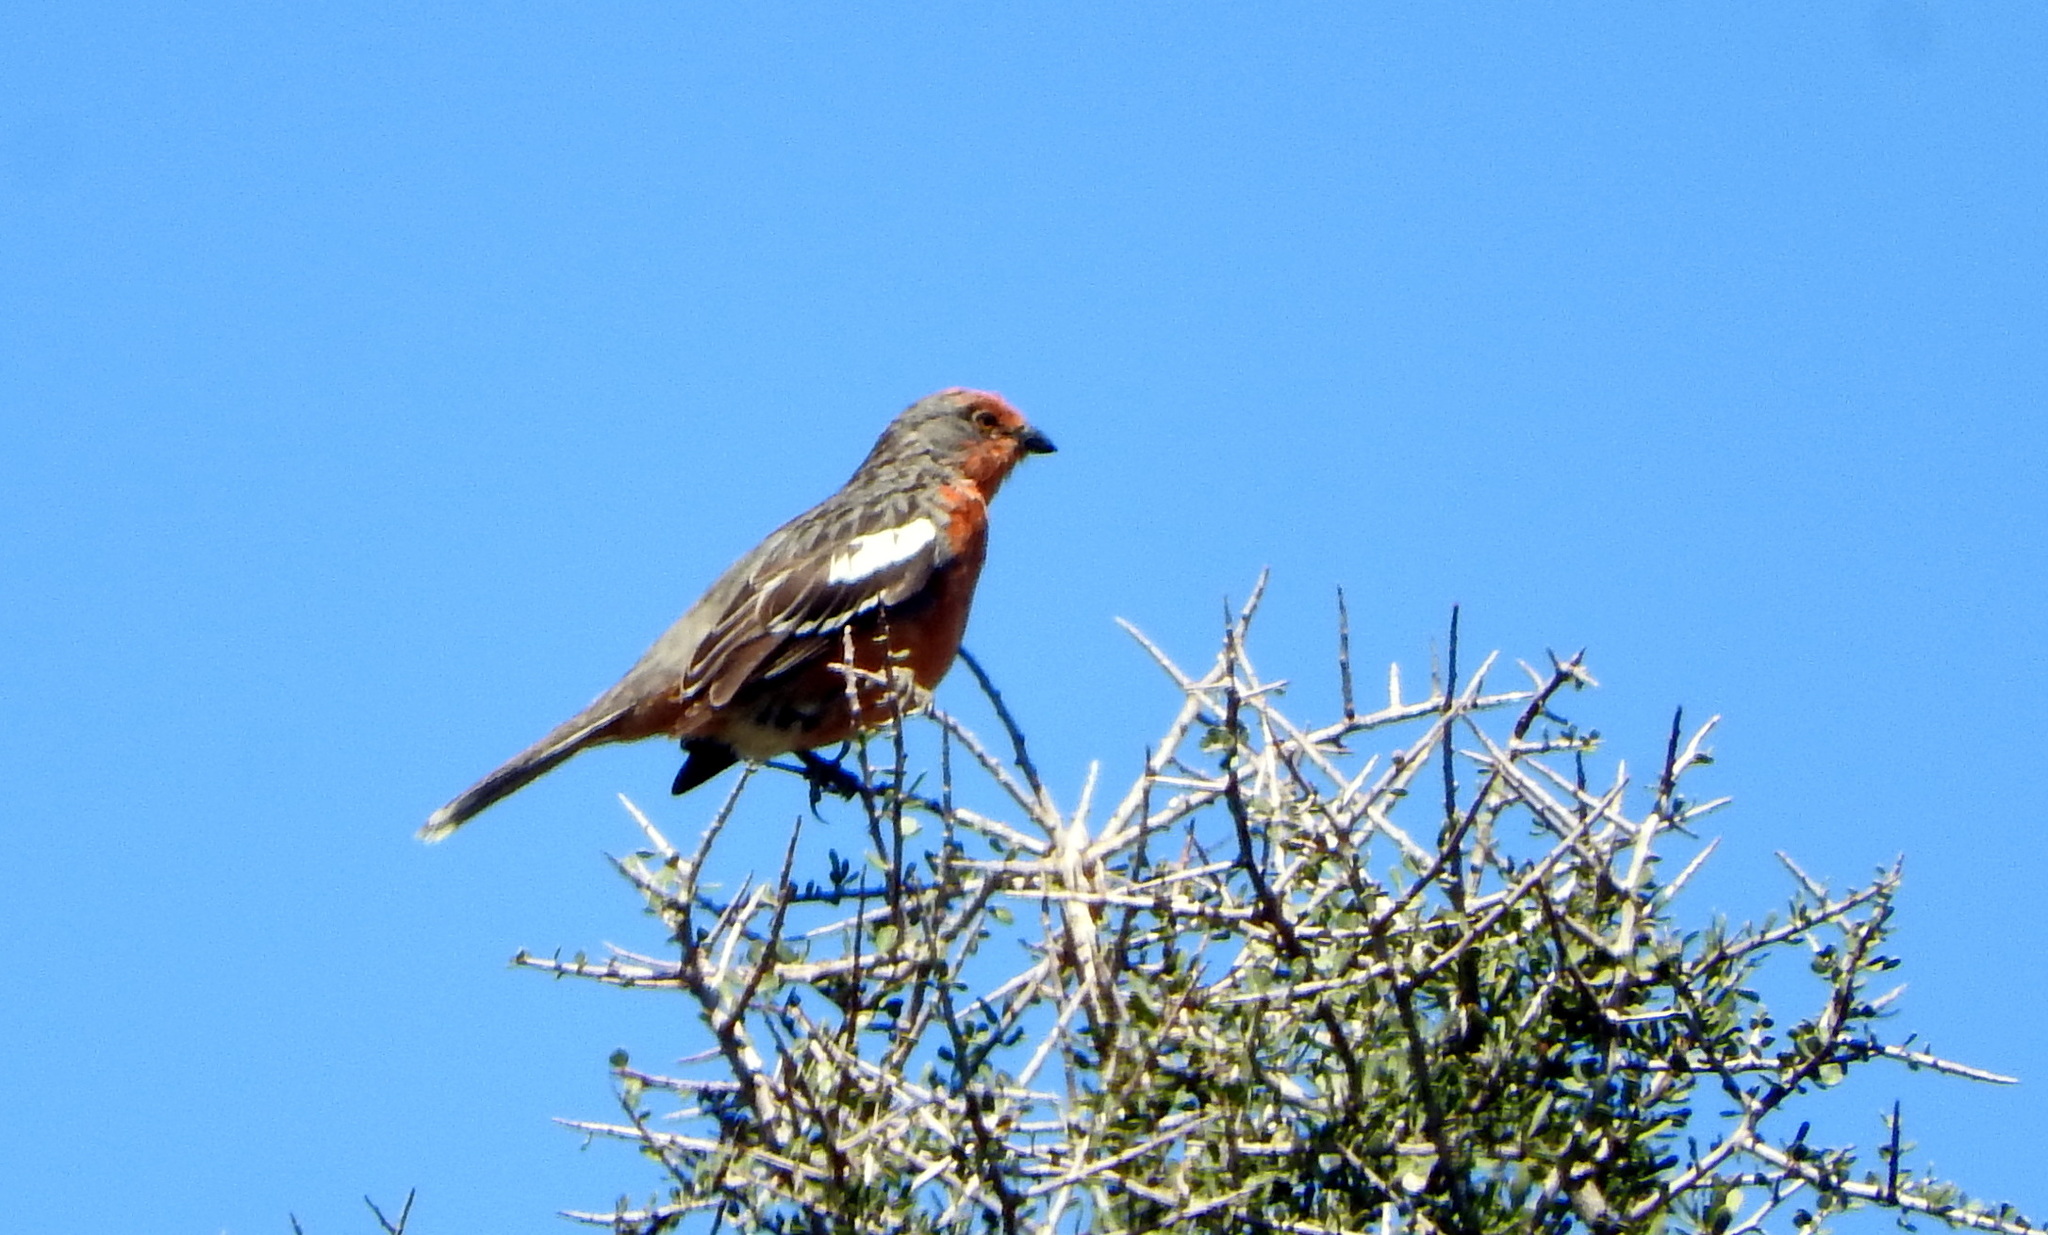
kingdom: Animalia
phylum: Chordata
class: Aves
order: Passeriformes
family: Cotingidae
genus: Phytotoma
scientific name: Phytotoma rutila
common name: White-tipped plantcutter
